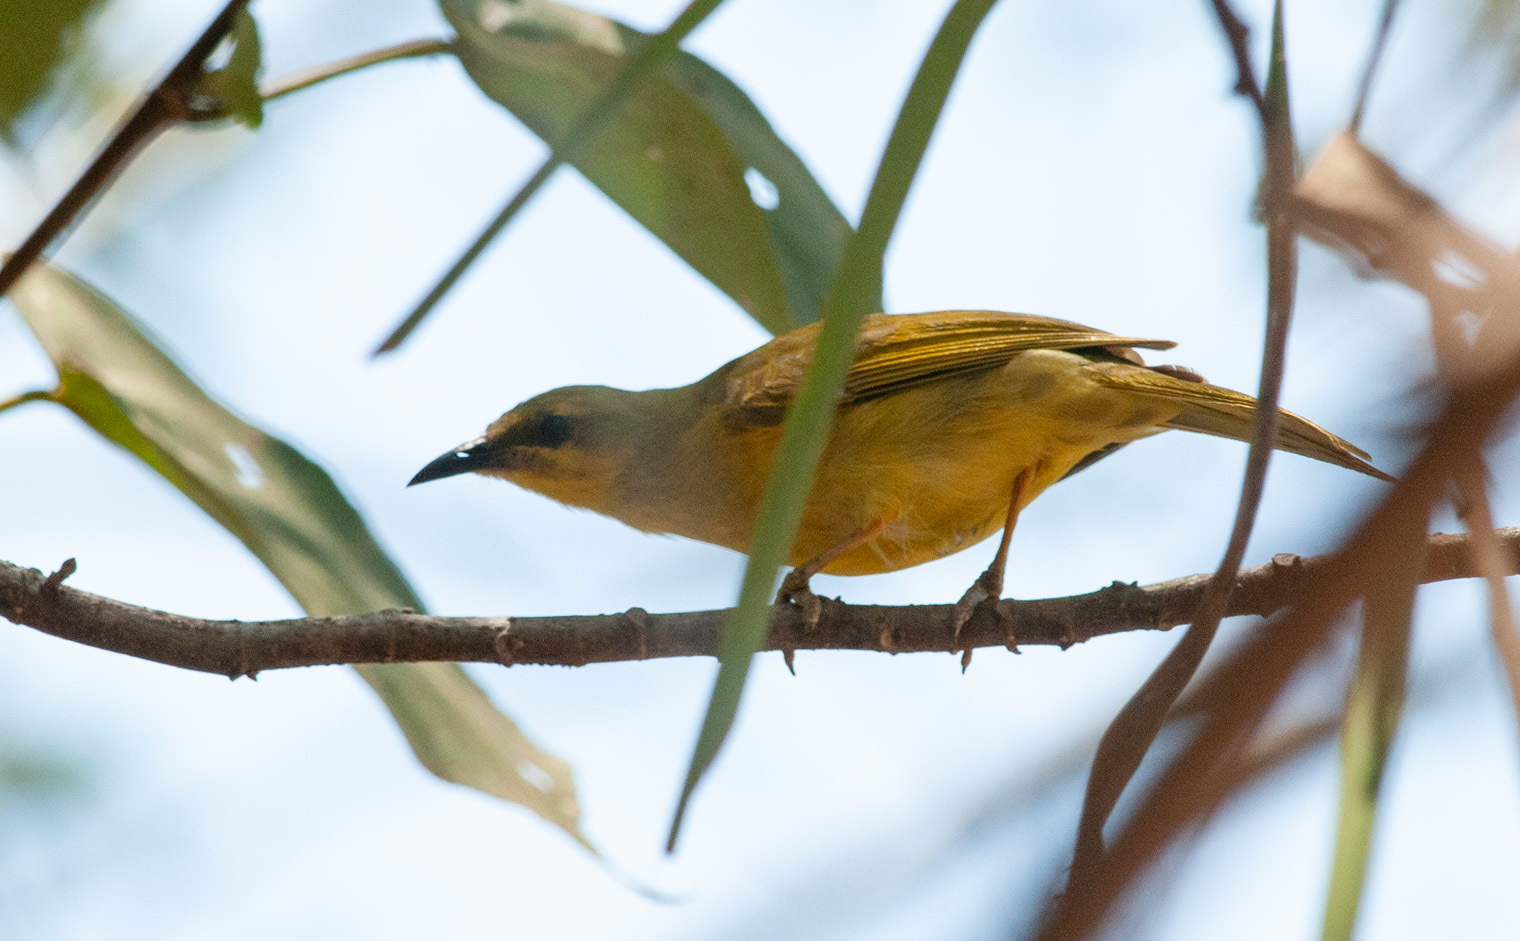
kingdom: Animalia
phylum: Chordata
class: Aves
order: Passeriformes
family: Meliphagidae
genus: Stomiopera
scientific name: Stomiopera flava
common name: Yellow honeyeater
